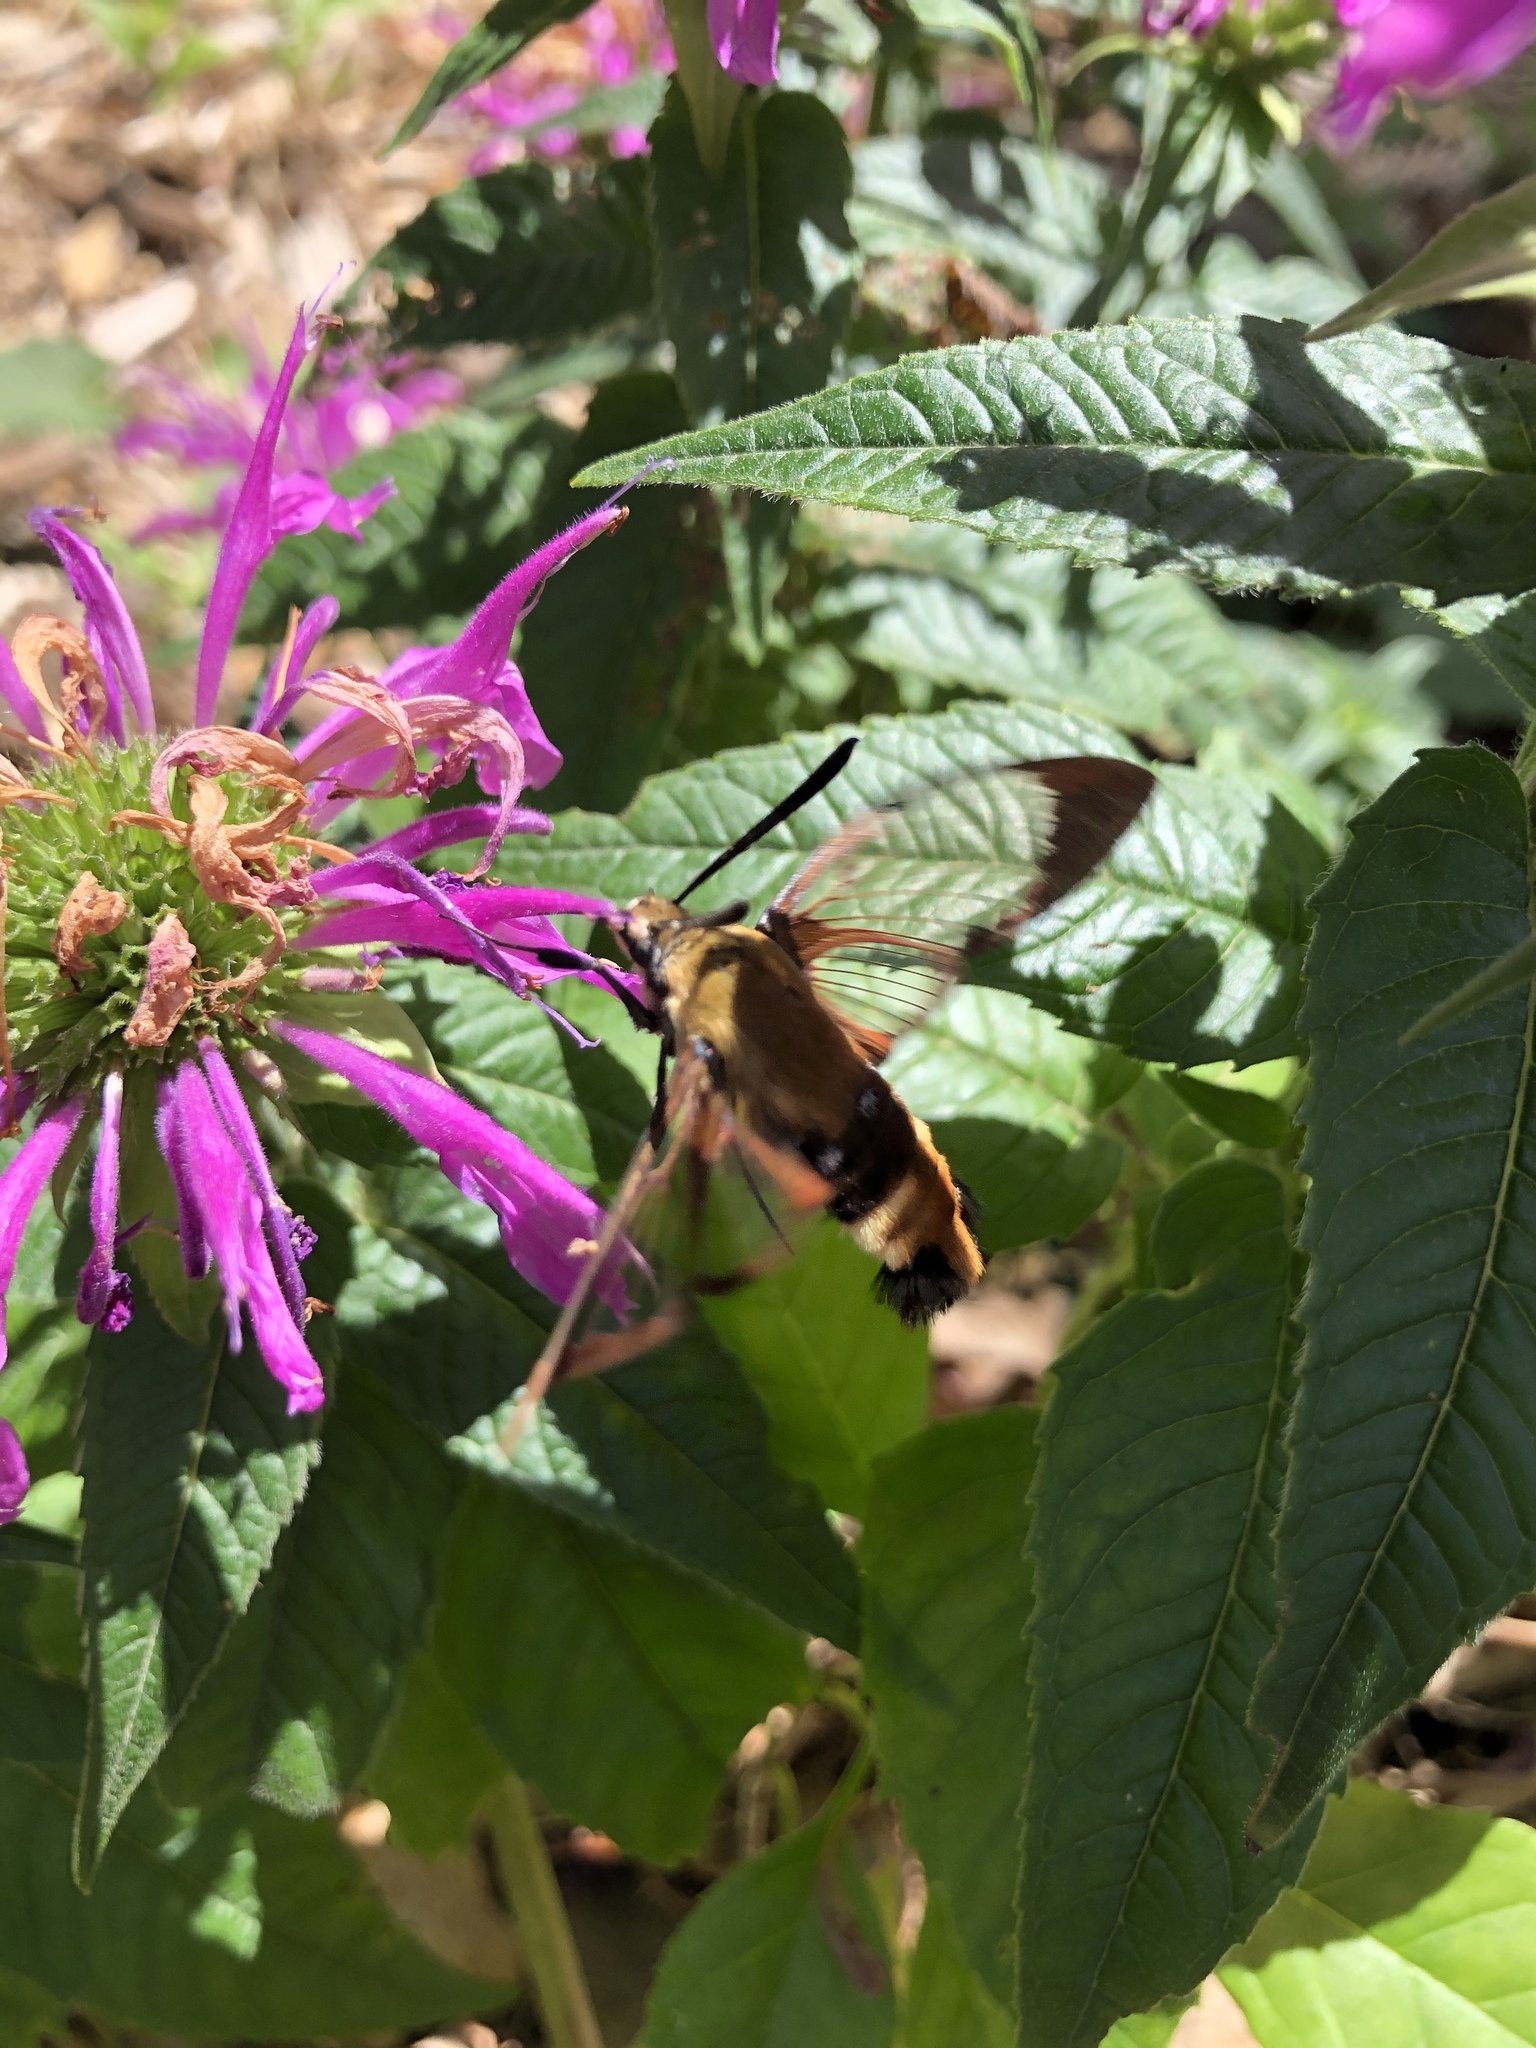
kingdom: Animalia
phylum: Arthropoda
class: Insecta
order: Lepidoptera
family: Sphingidae
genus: Hemaris
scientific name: Hemaris diffinis
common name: Bumblebee moth
